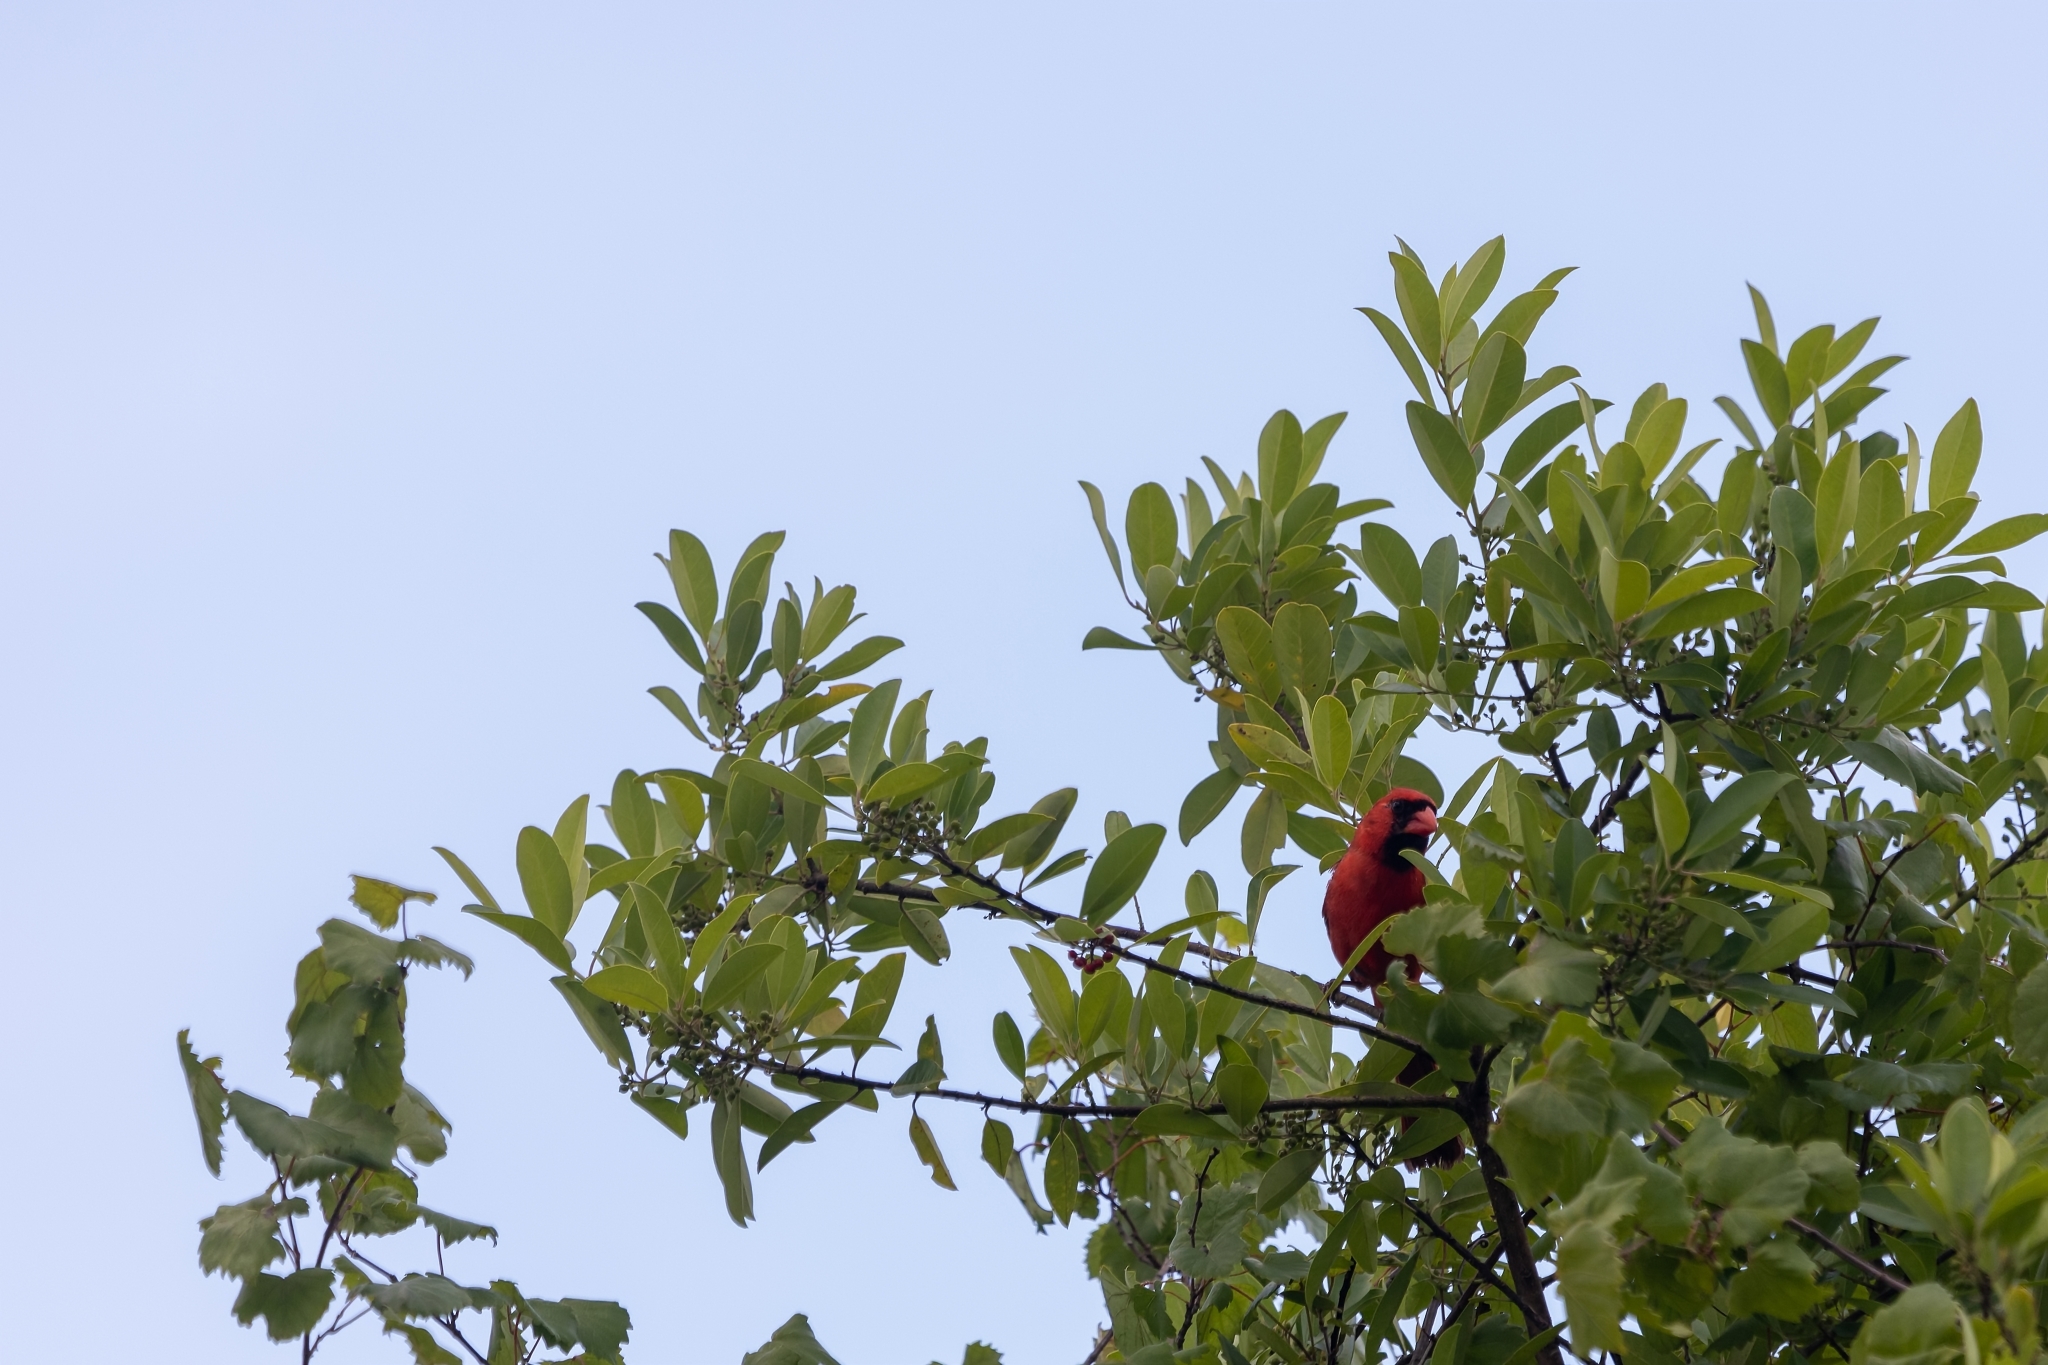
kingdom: Animalia
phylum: Chordata
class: Aves
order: Passeriformes
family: Cardinalidae
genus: Cardinalis
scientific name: Cardinalis cardinalis
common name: Northern cardinal
